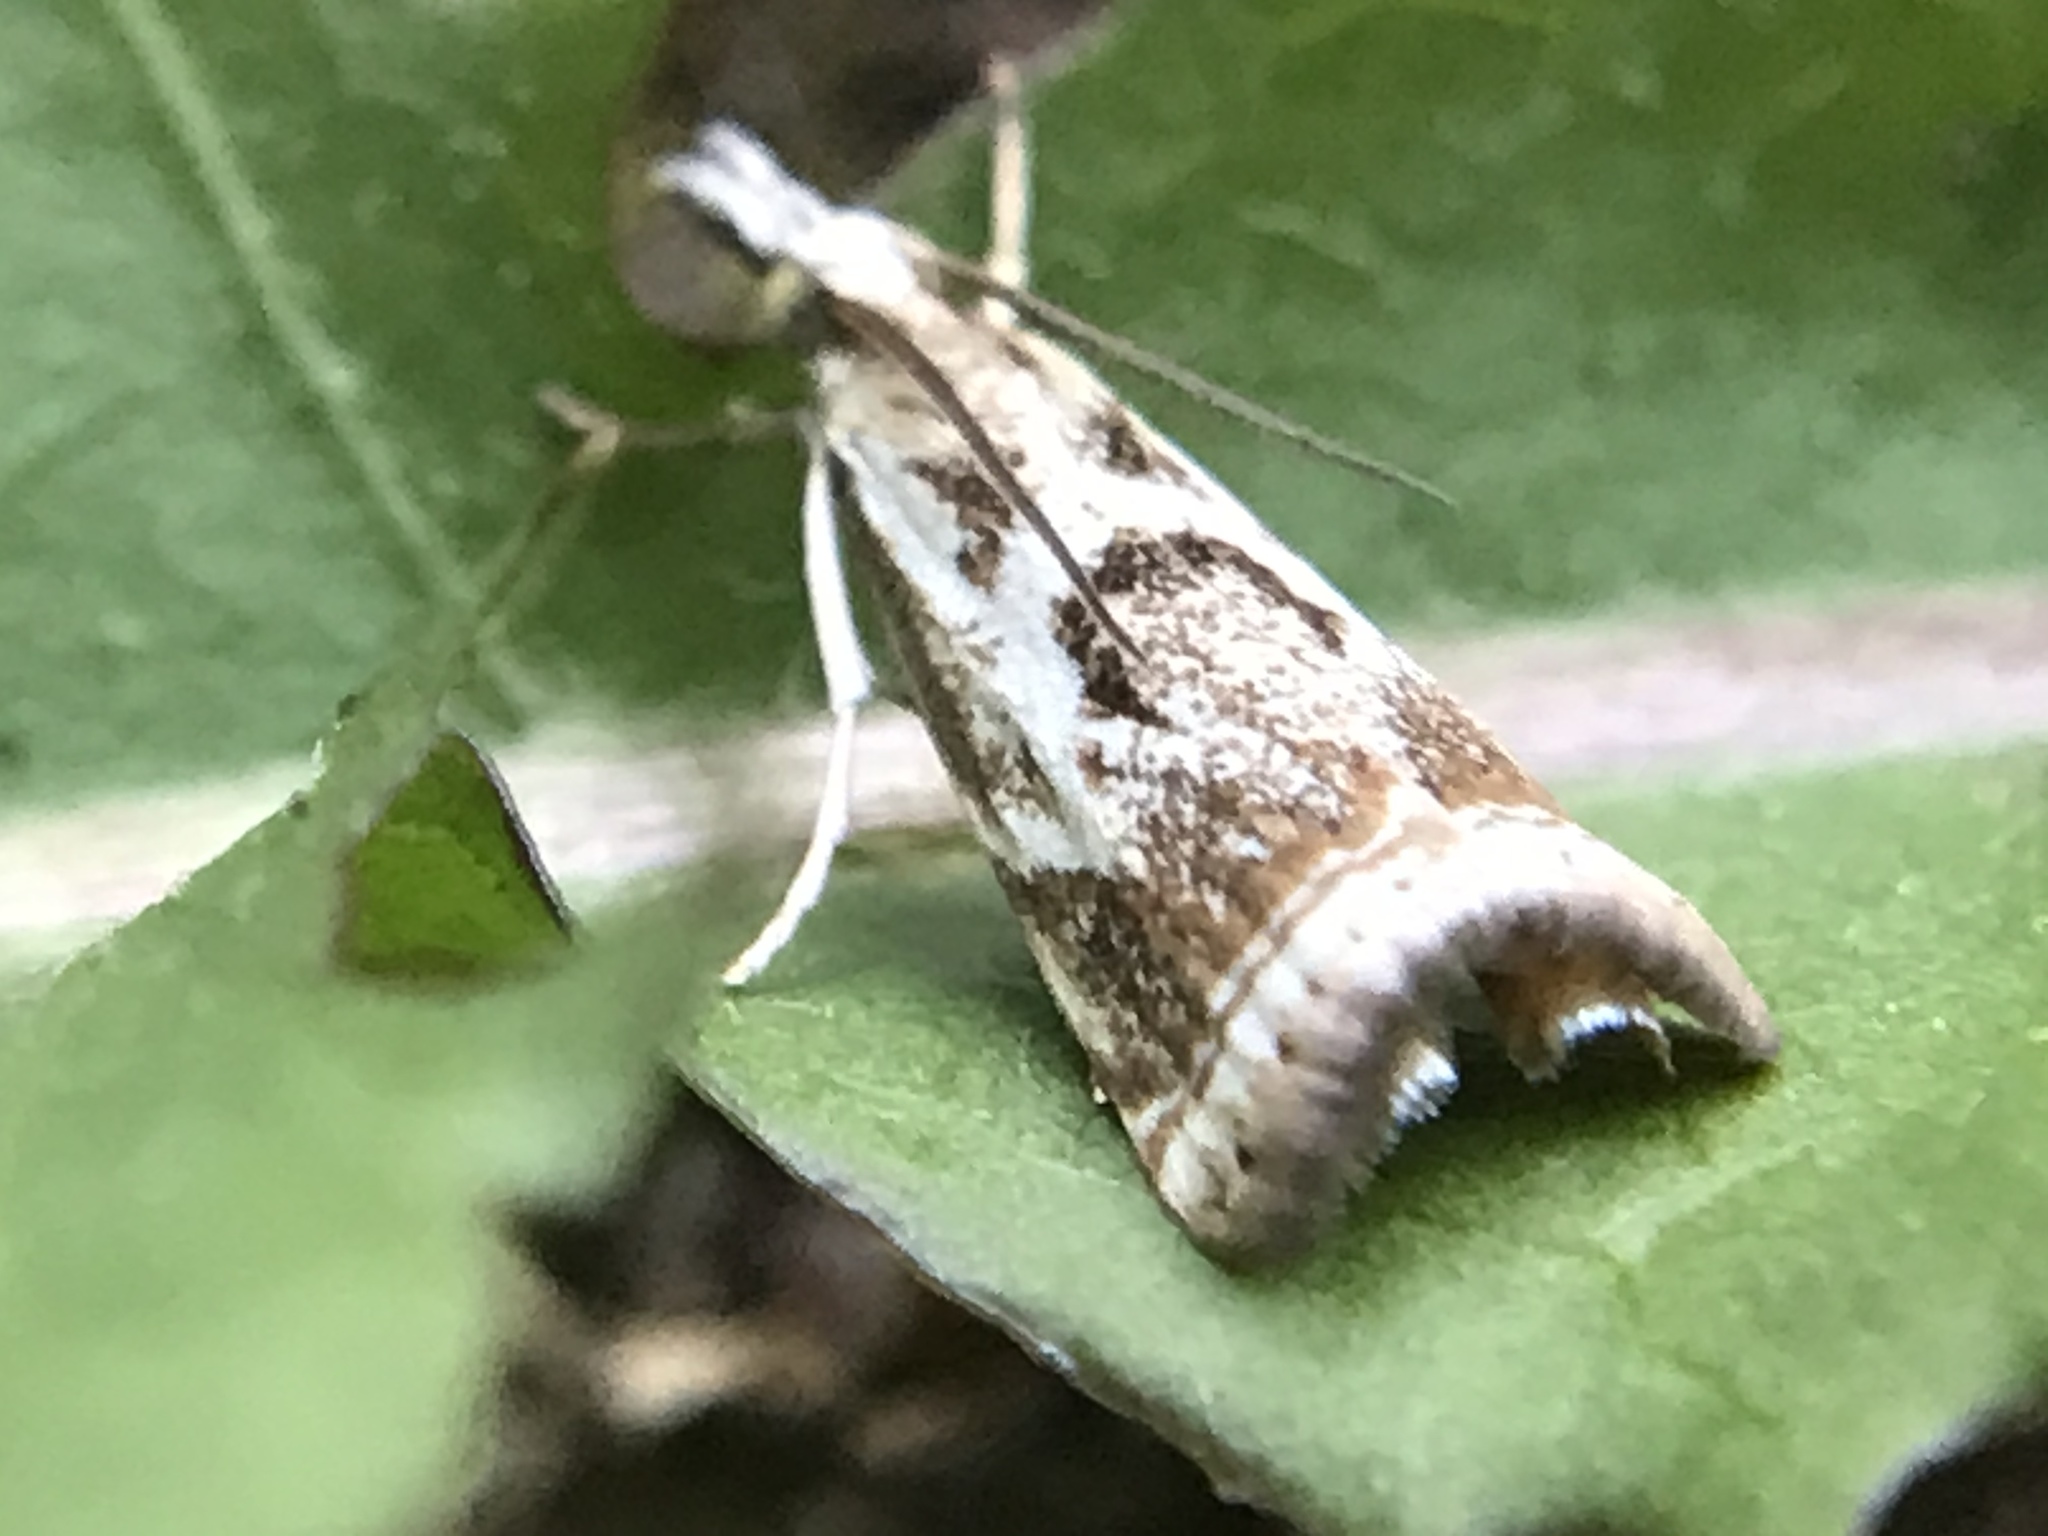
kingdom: Animalia
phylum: Arthropoda
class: Insecta
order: Lepidoptera
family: Crambidae
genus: Microcrambus
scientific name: Microcrambus elegans
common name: Elegant grass-veneer
